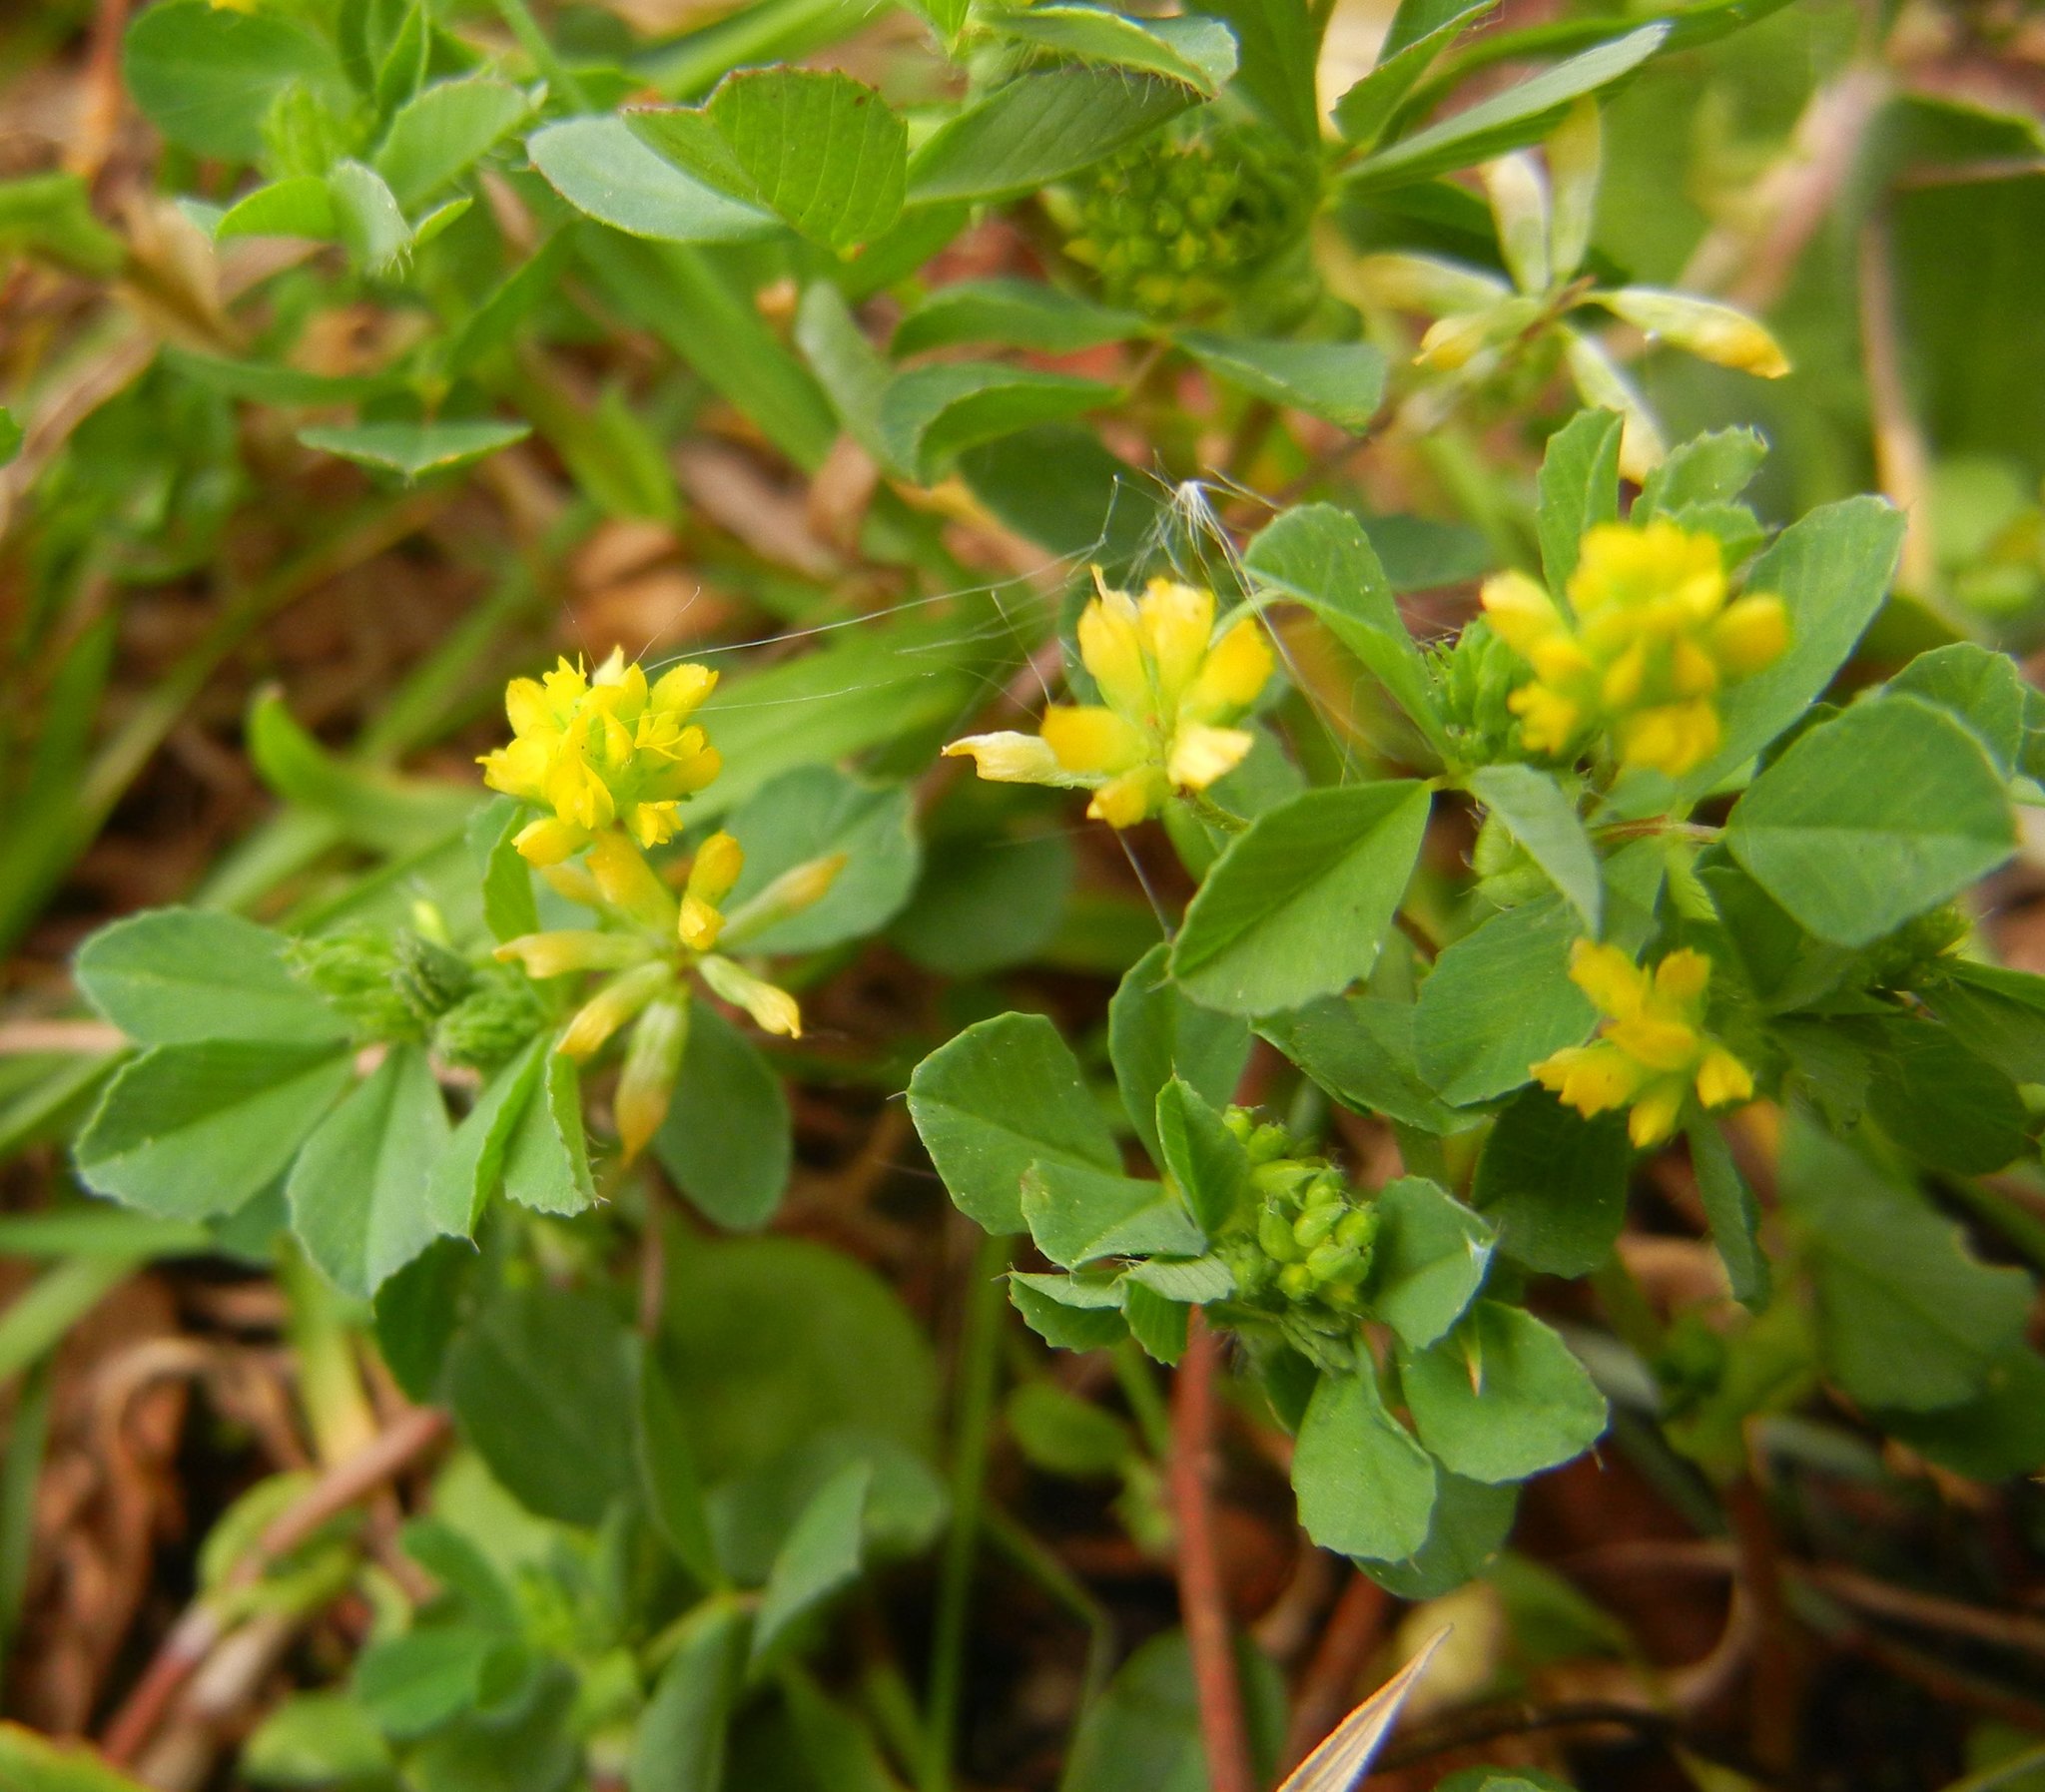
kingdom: Plantae
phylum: Tracheophyta
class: Magnoliopsida
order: Fabales
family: Fabaceae
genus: Trifolium
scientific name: Trifolium dubium
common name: Suckling clover
